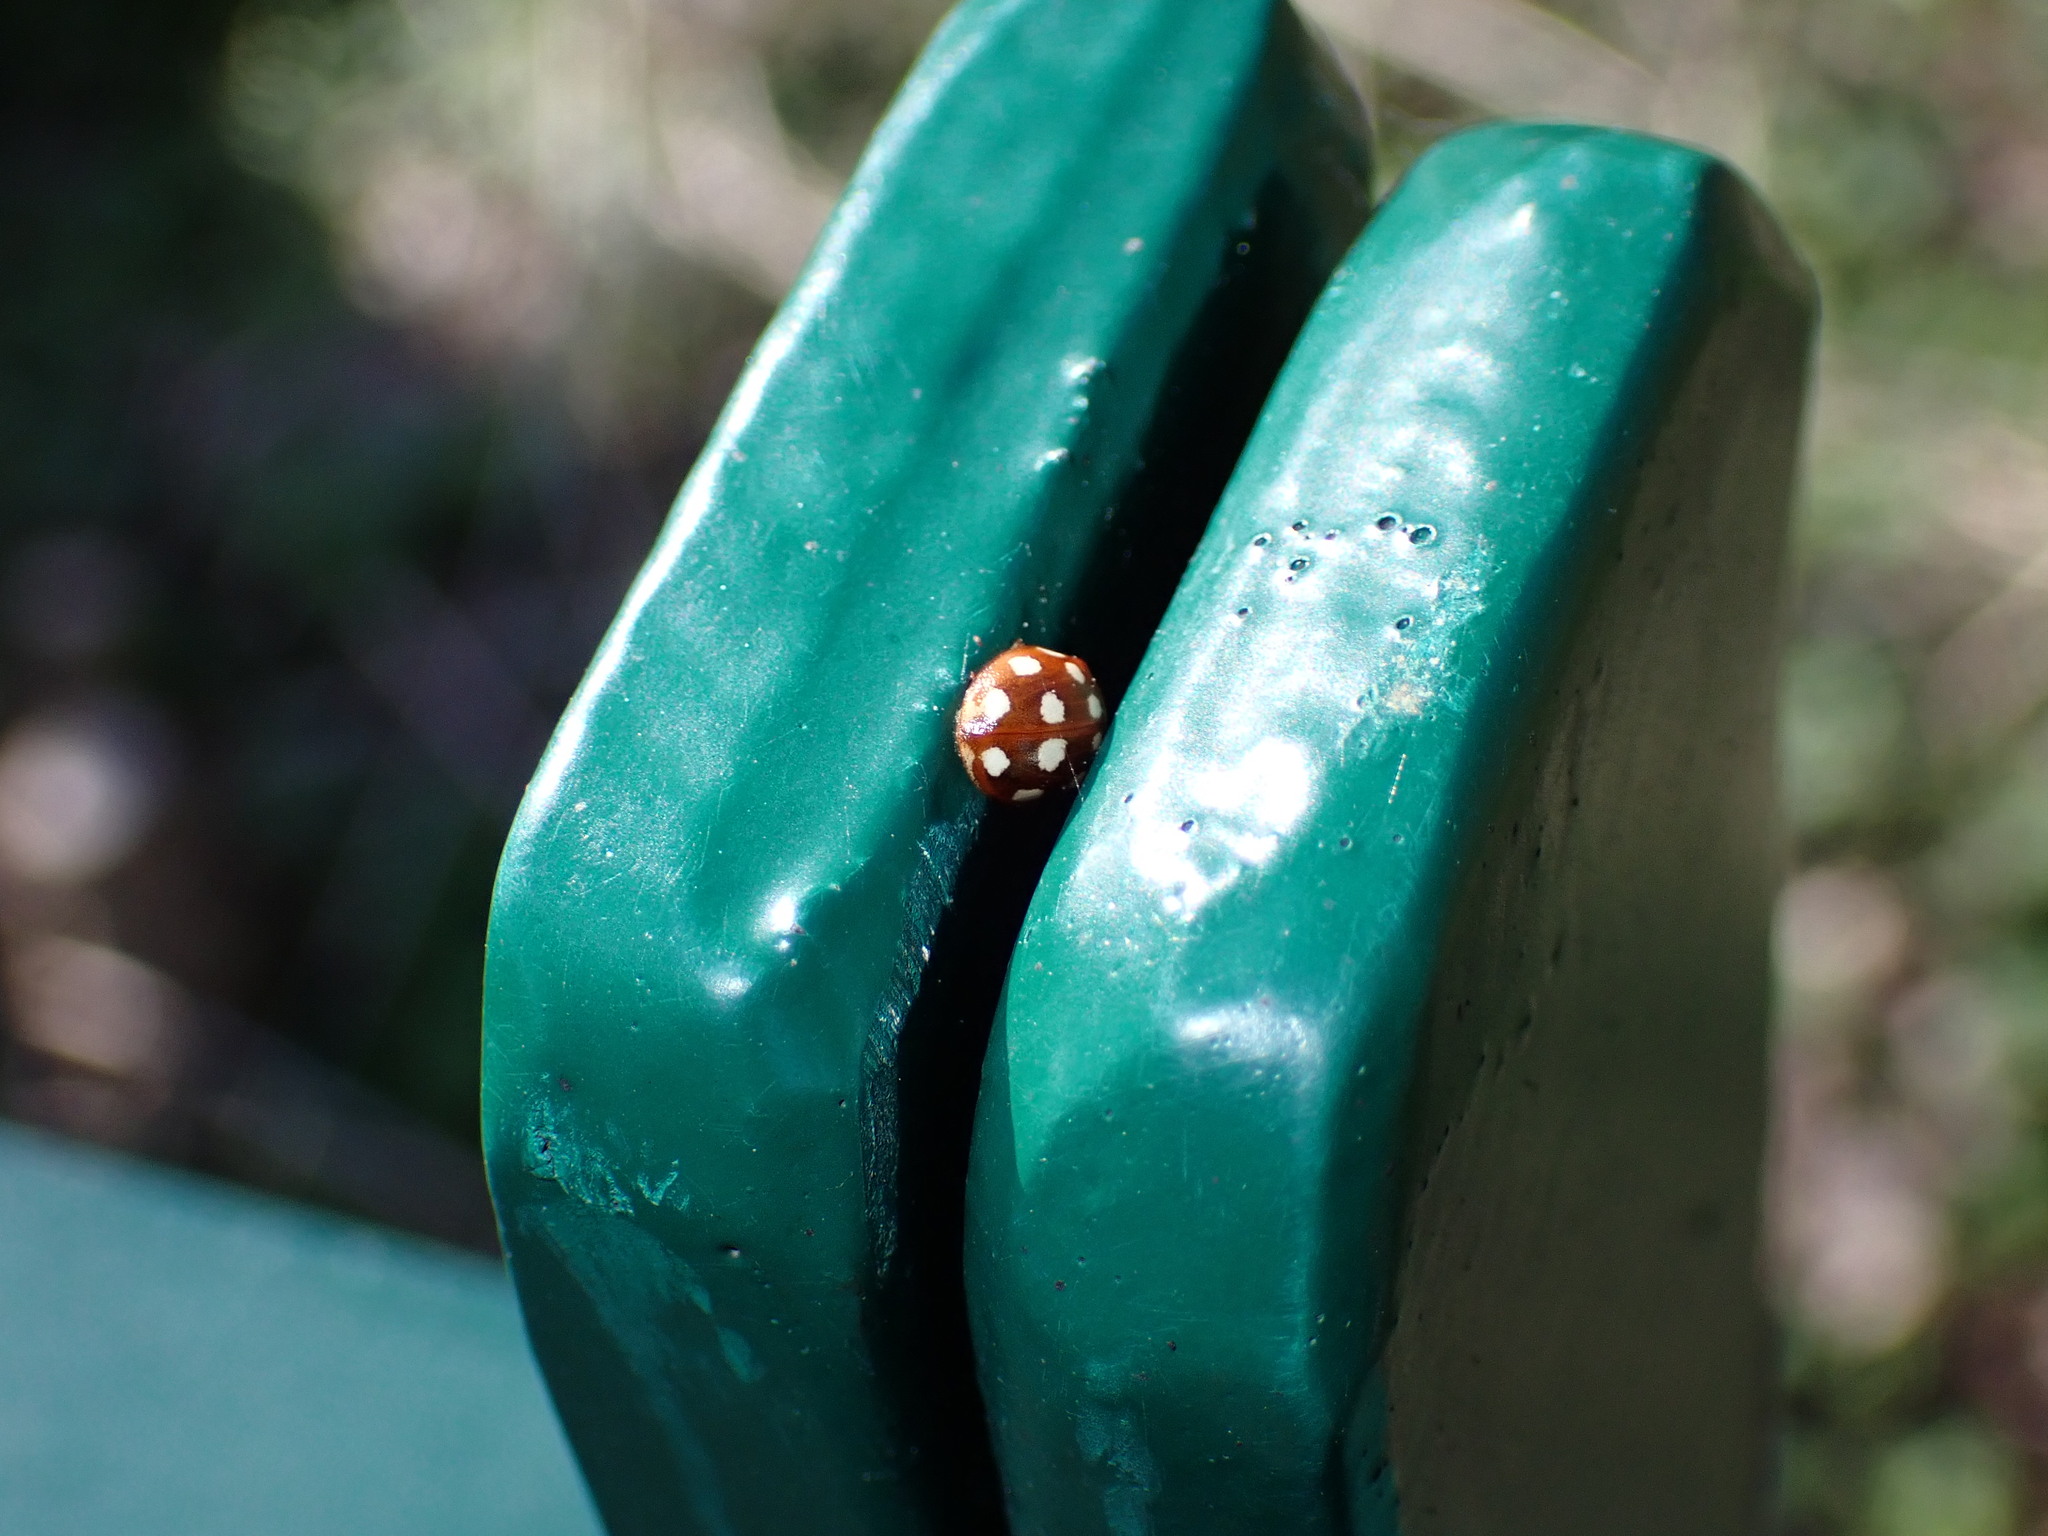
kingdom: Animalia
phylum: Arthropoda
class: Insecta
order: Coleoptera
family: Coccinellidae
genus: Calvia
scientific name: Calvia quatuordecimguttata
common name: Cream-spot ladybird
